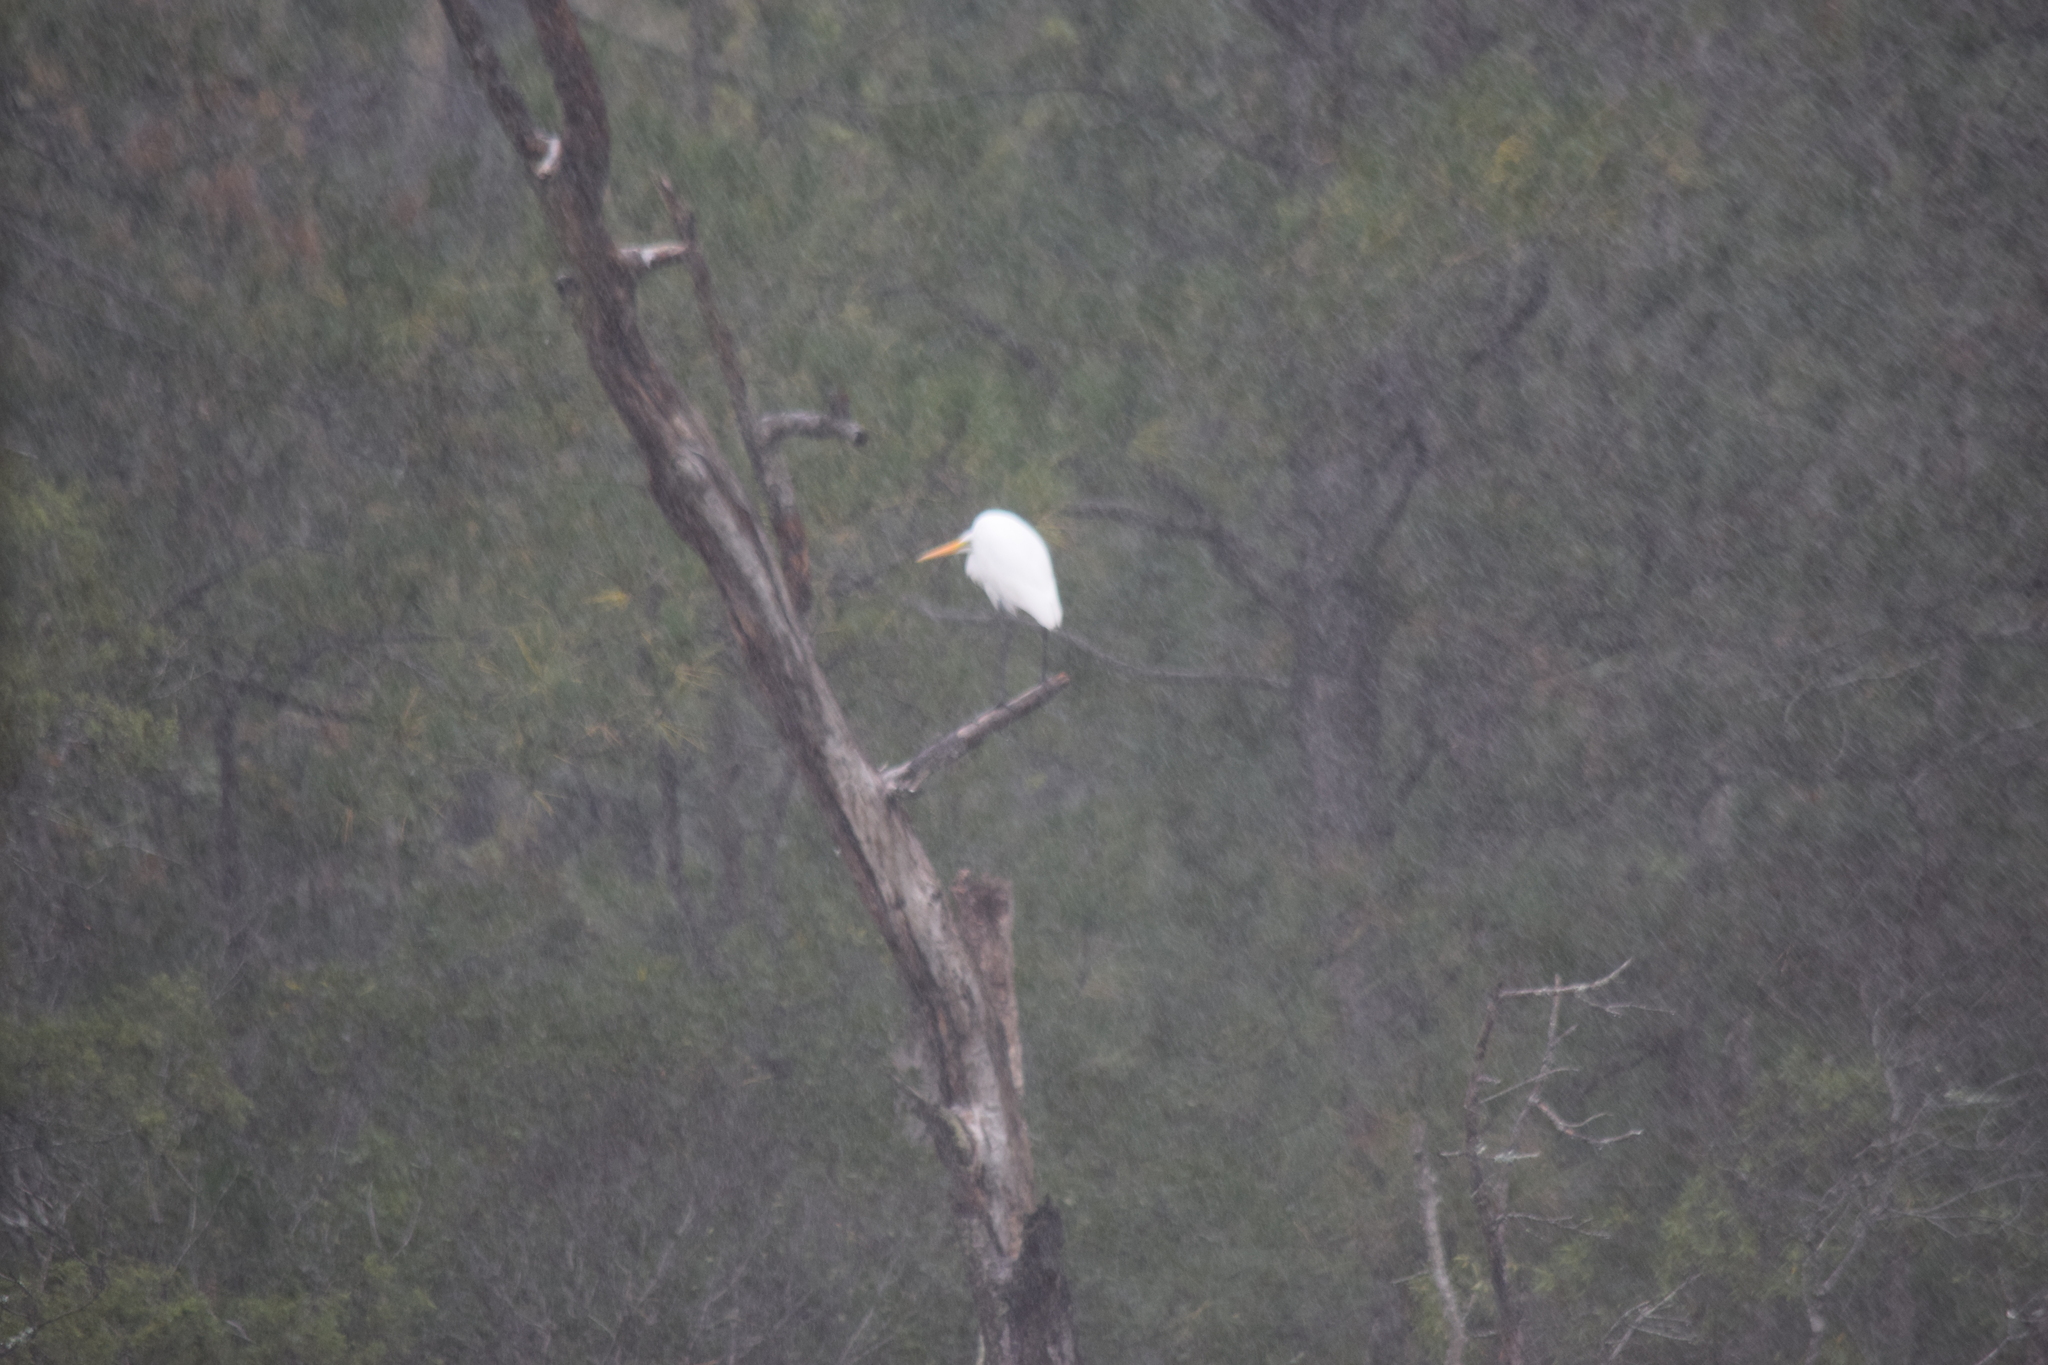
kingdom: Animalia
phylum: Chordata
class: Aves
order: Pelecaniformes
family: Ardeidae
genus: Ardea
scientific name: Ardea alba
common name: Great egret
